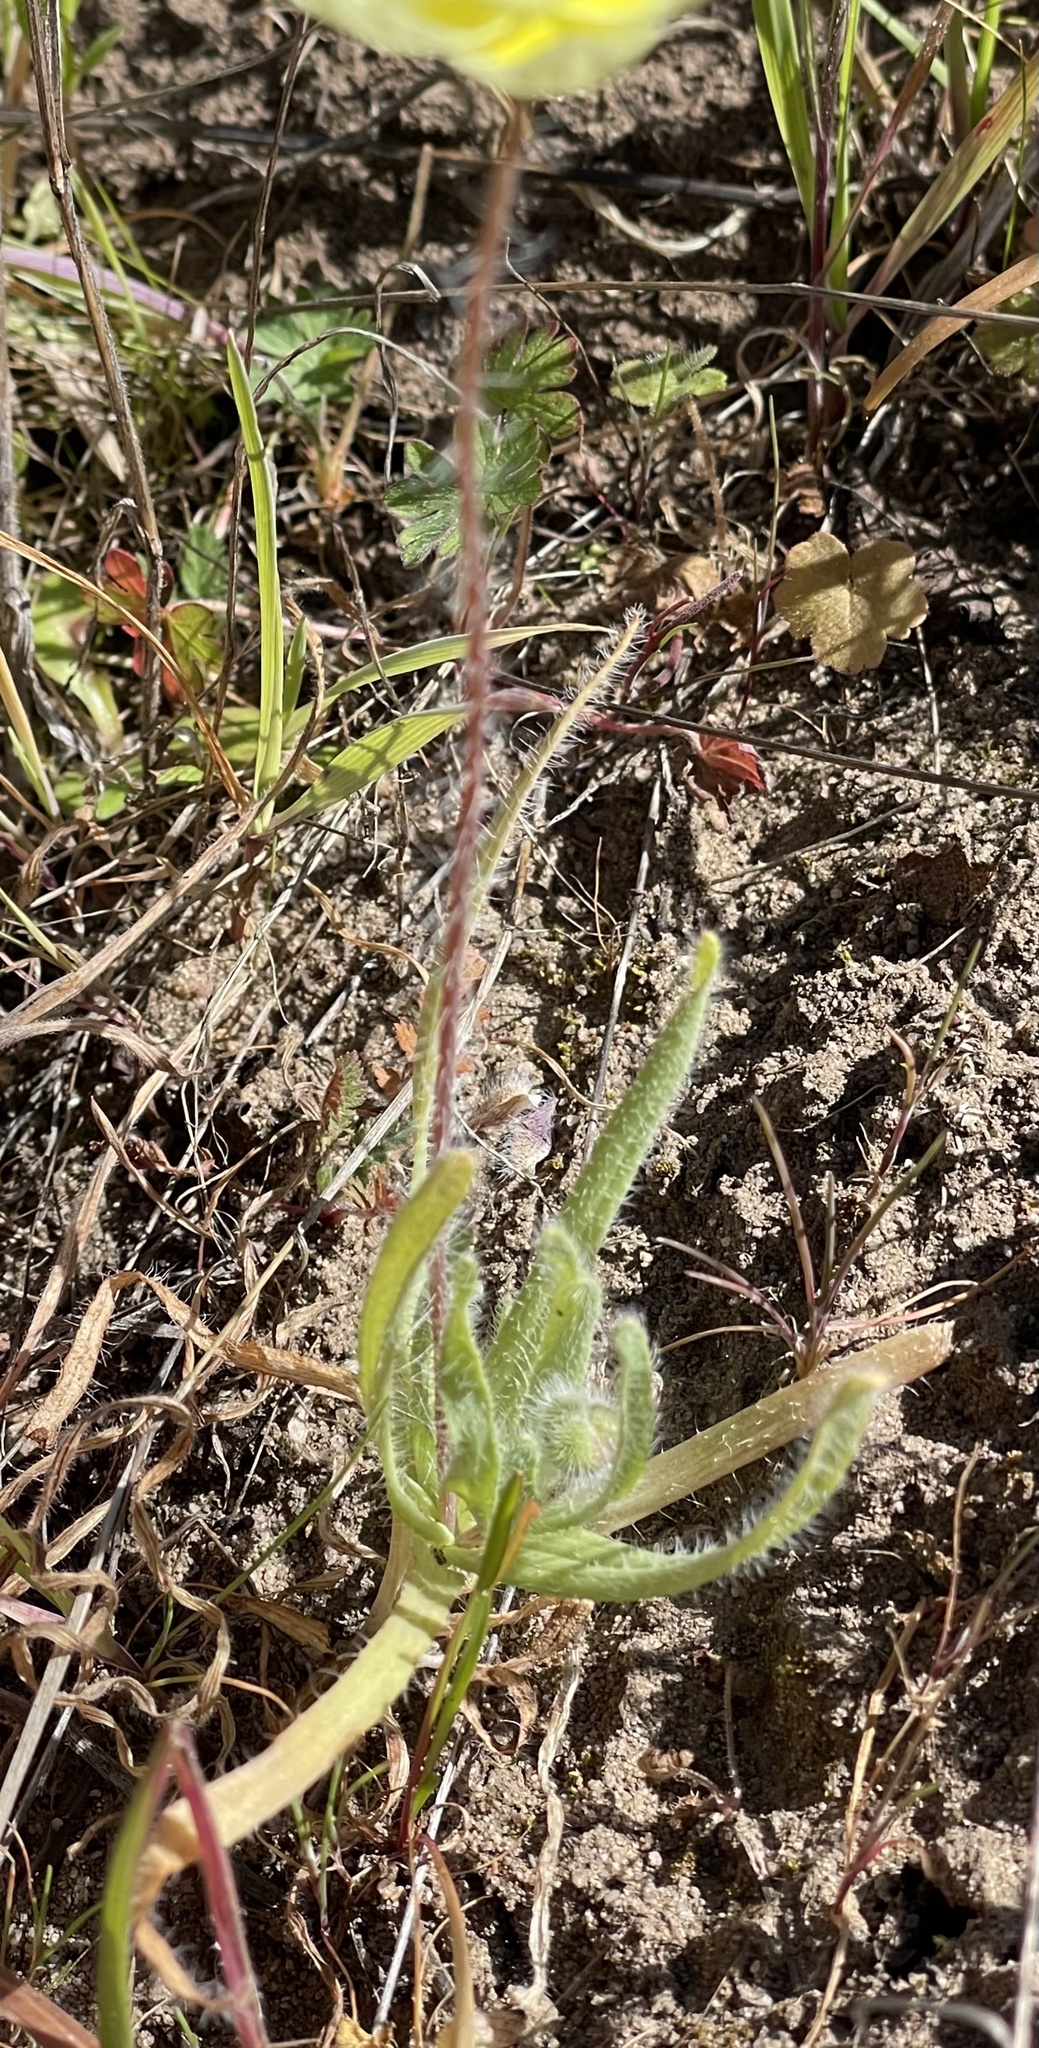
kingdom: Plantae
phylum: Tracheophyta
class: Magnoliopsida
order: Ranunculales
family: Papaveraceae
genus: Platystemon
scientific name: Platystemon californicus
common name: Cream-cups
